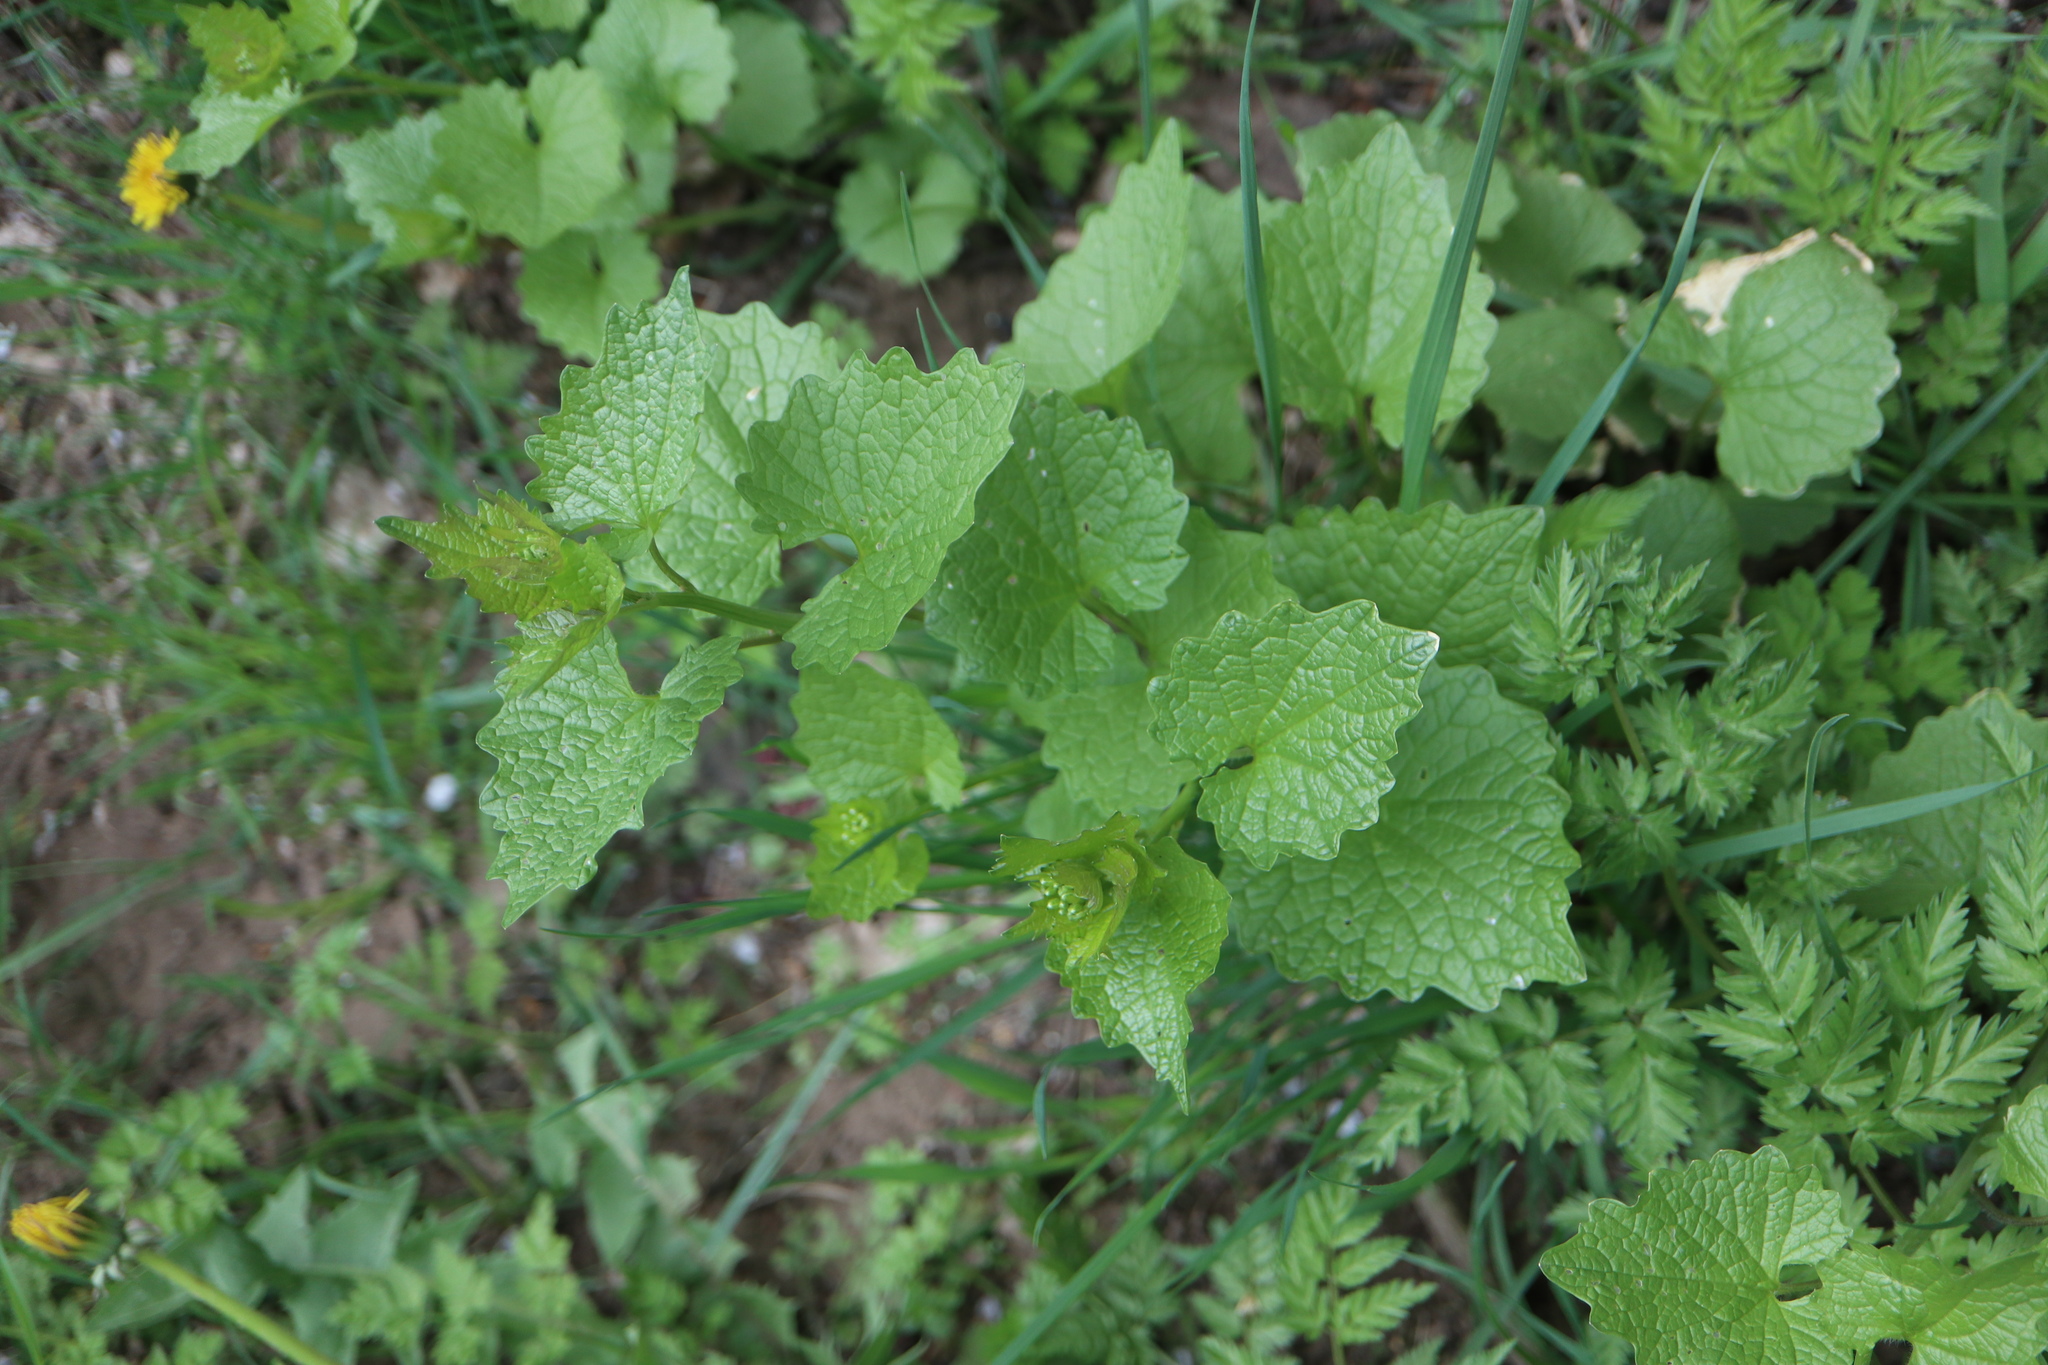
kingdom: Plantae
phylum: Tracheophyta
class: Magnoliopsida
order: Brassicales
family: Brassicaceae
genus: Alliaria
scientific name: Alliaria petiolata
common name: Garlic mustard
